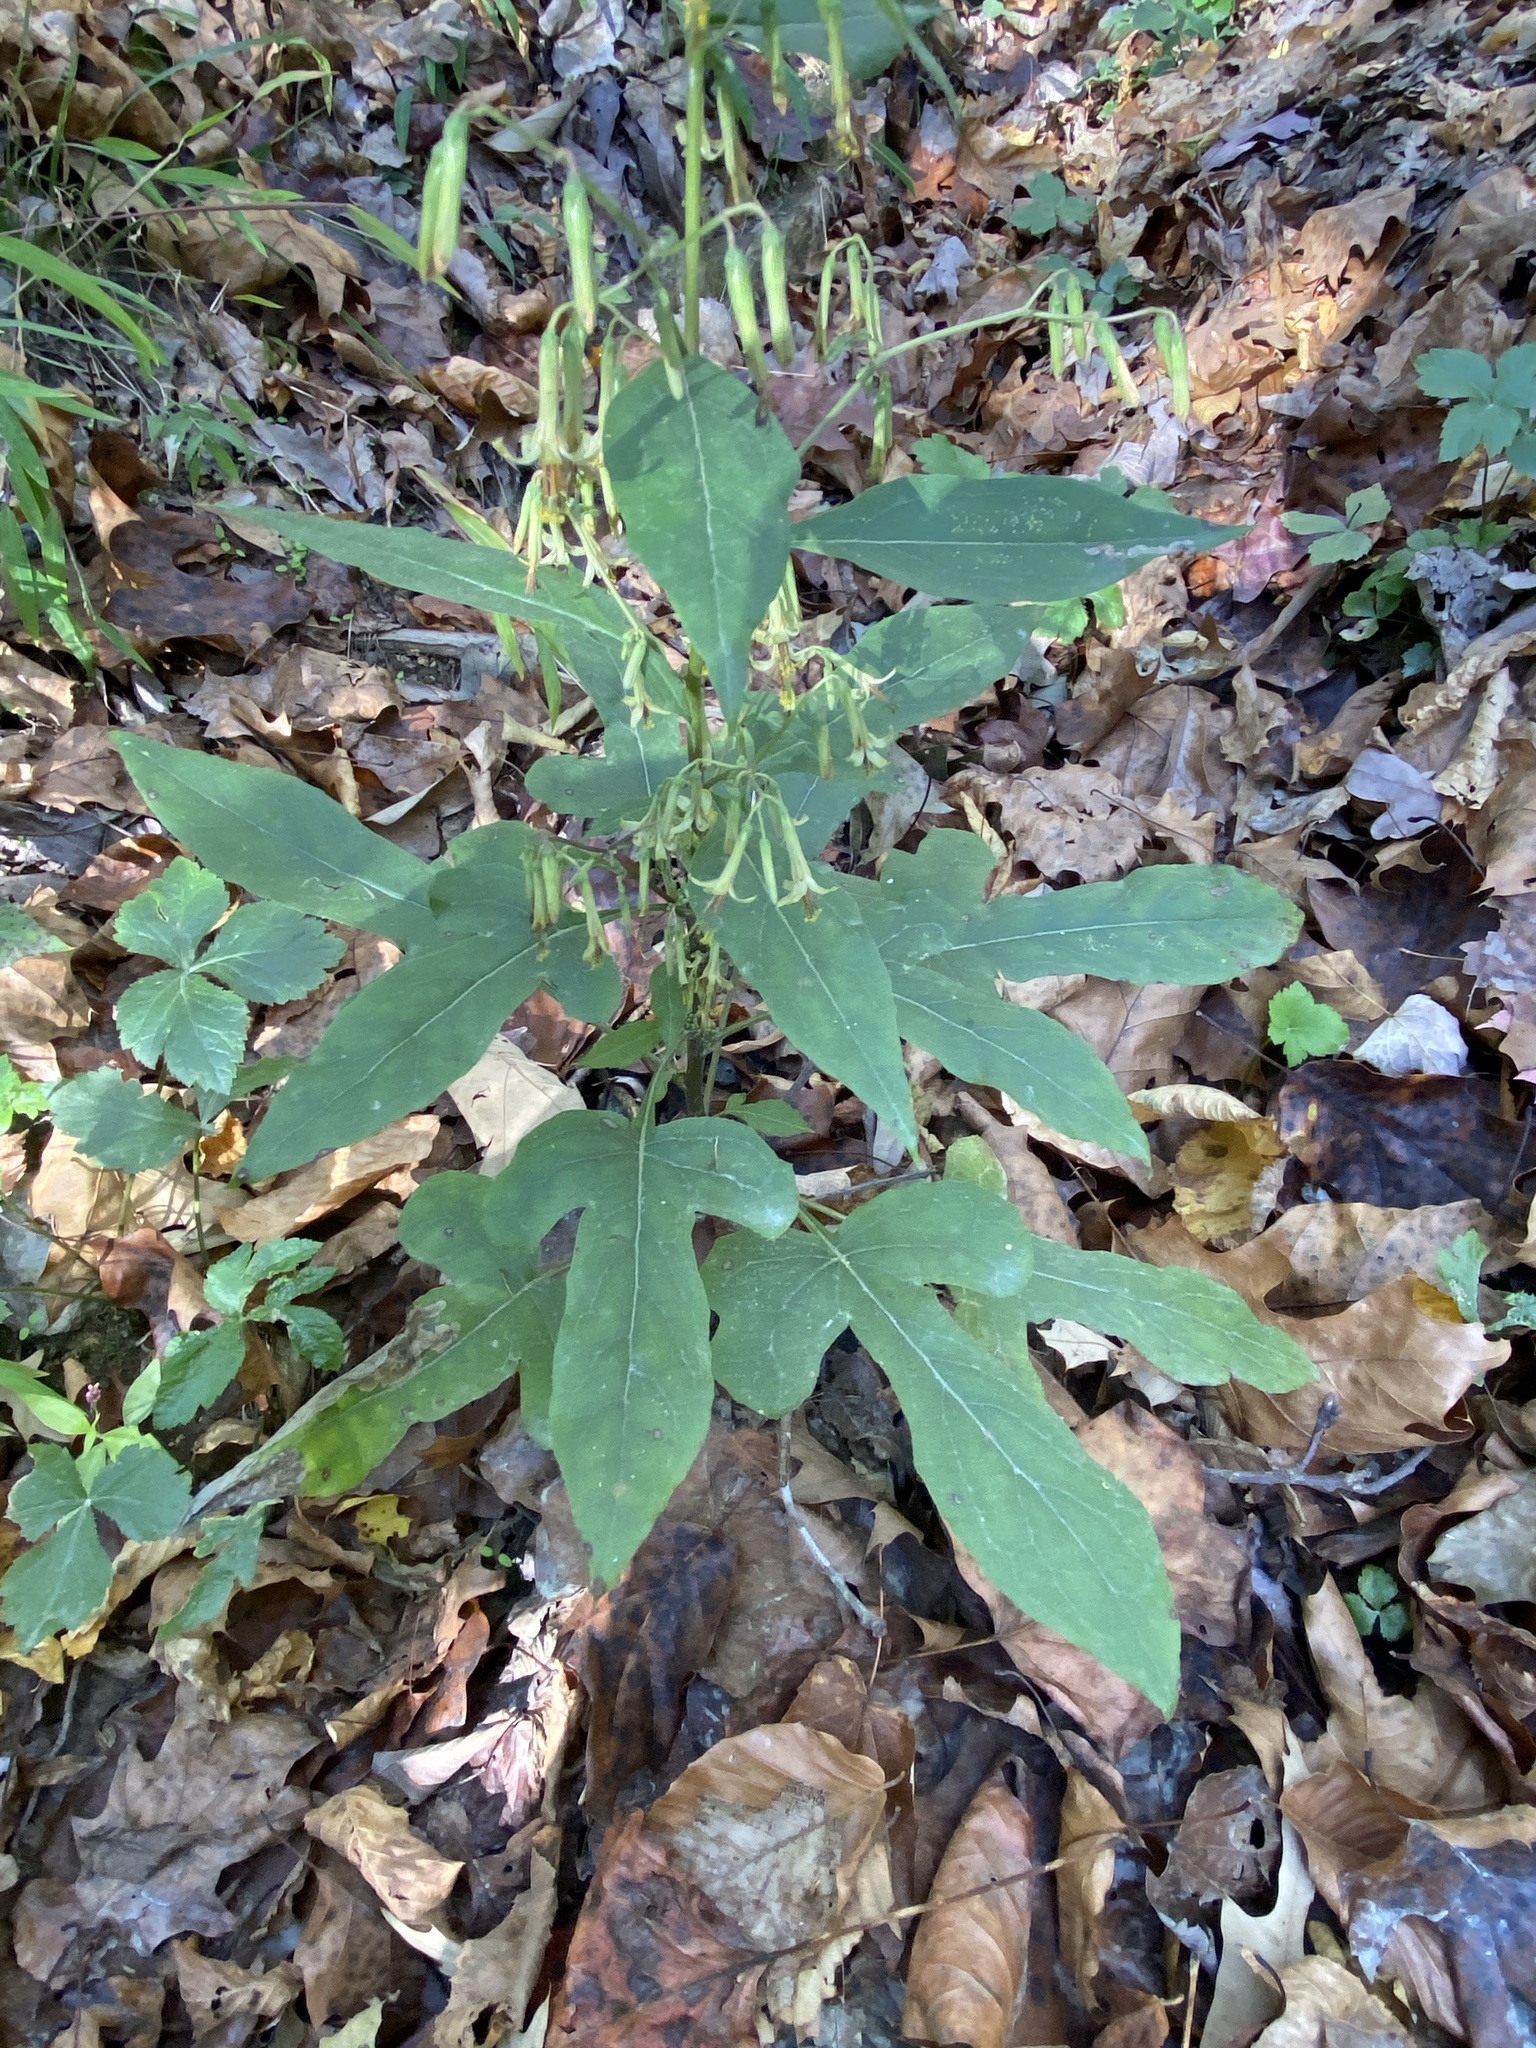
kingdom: Plantae
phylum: Tracheophyta
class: Magnoliopsida
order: Asterales
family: Asteraceae
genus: Nabalus
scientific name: Nabalus altissima
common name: Tall rattlesnakeroot
